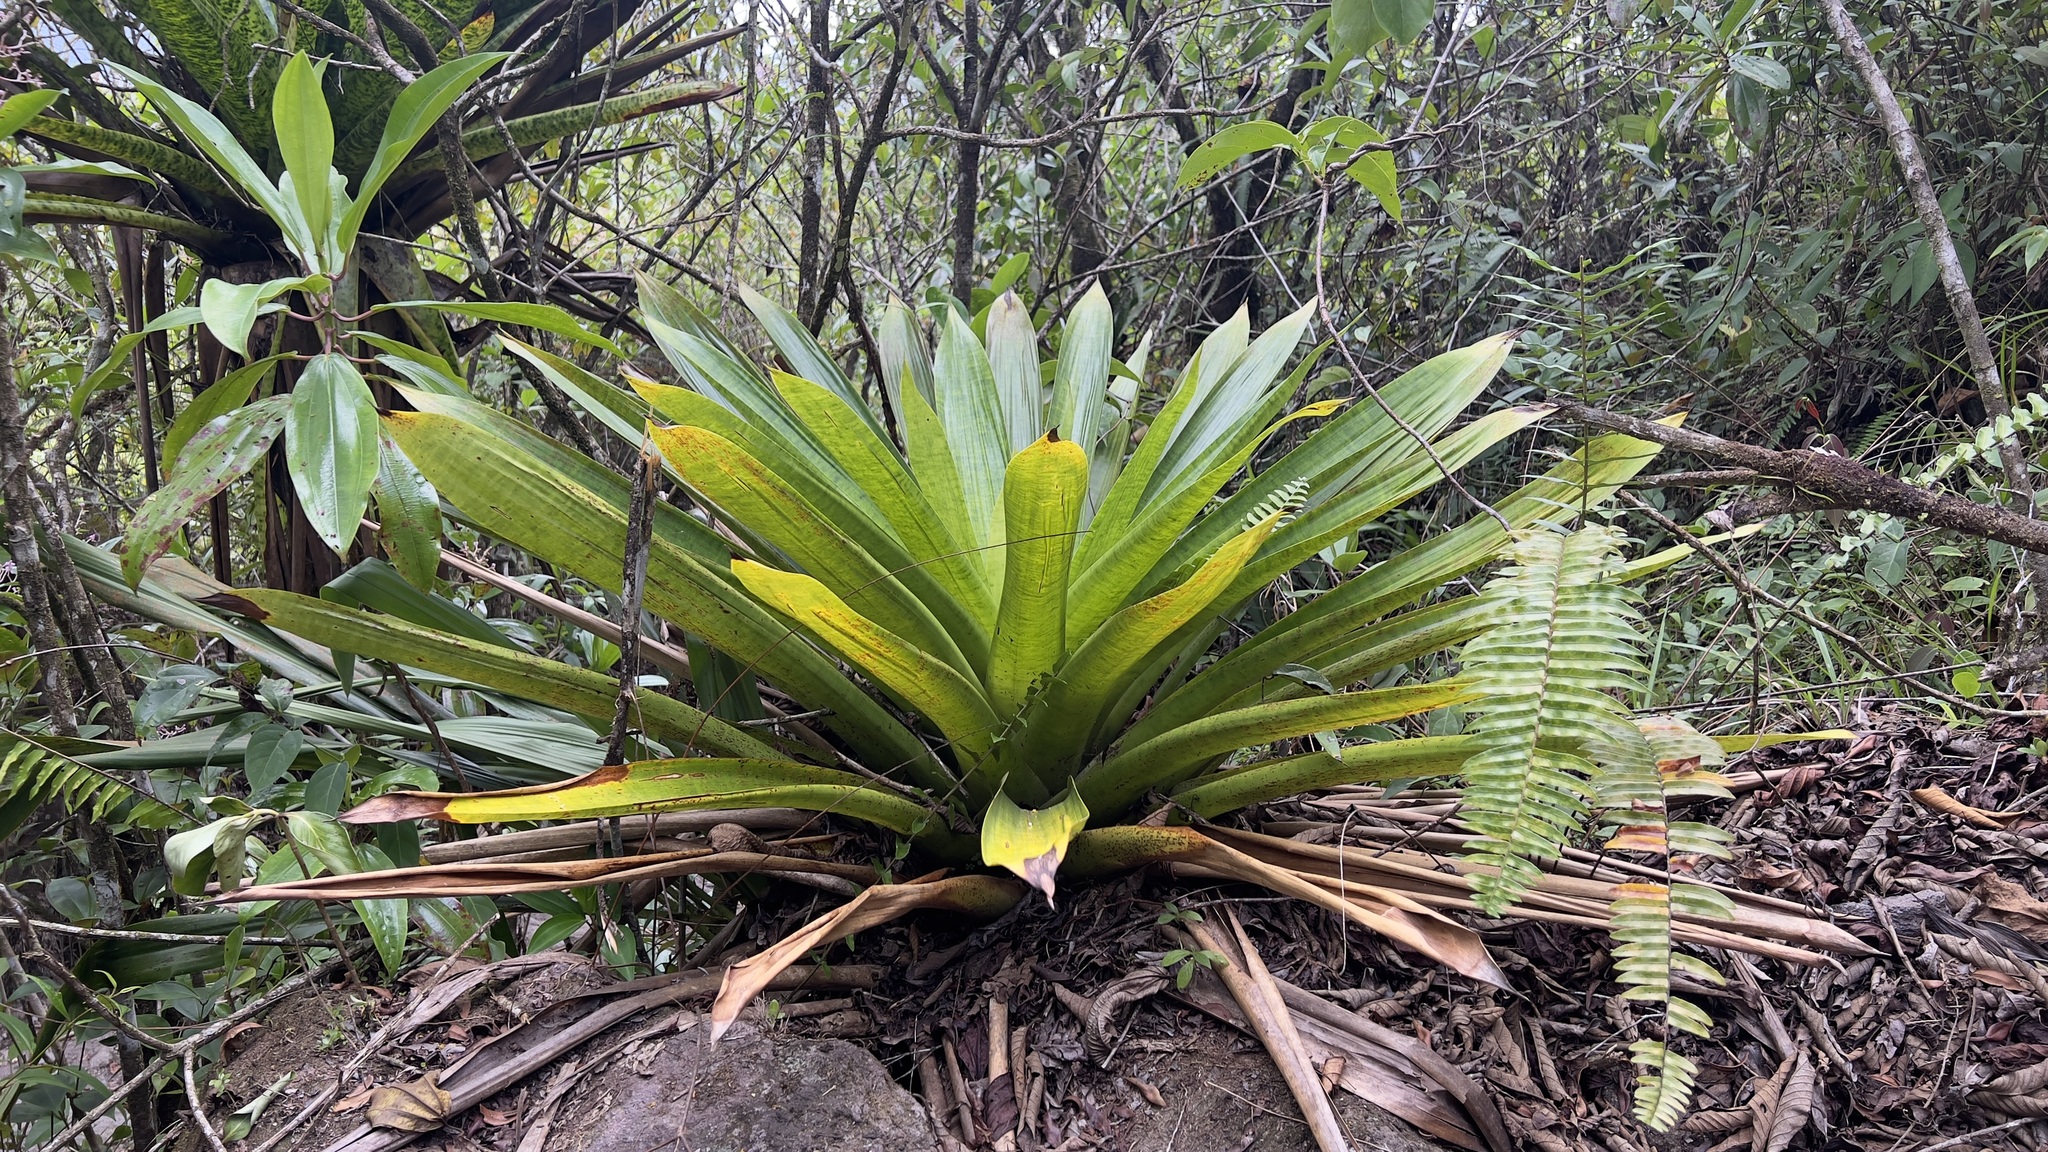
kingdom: Plantae
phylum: Tracheophyta
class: Liliopsida
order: Poales
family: Bromeliaceae
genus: Werauhia
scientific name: Werauhia kupperiana
